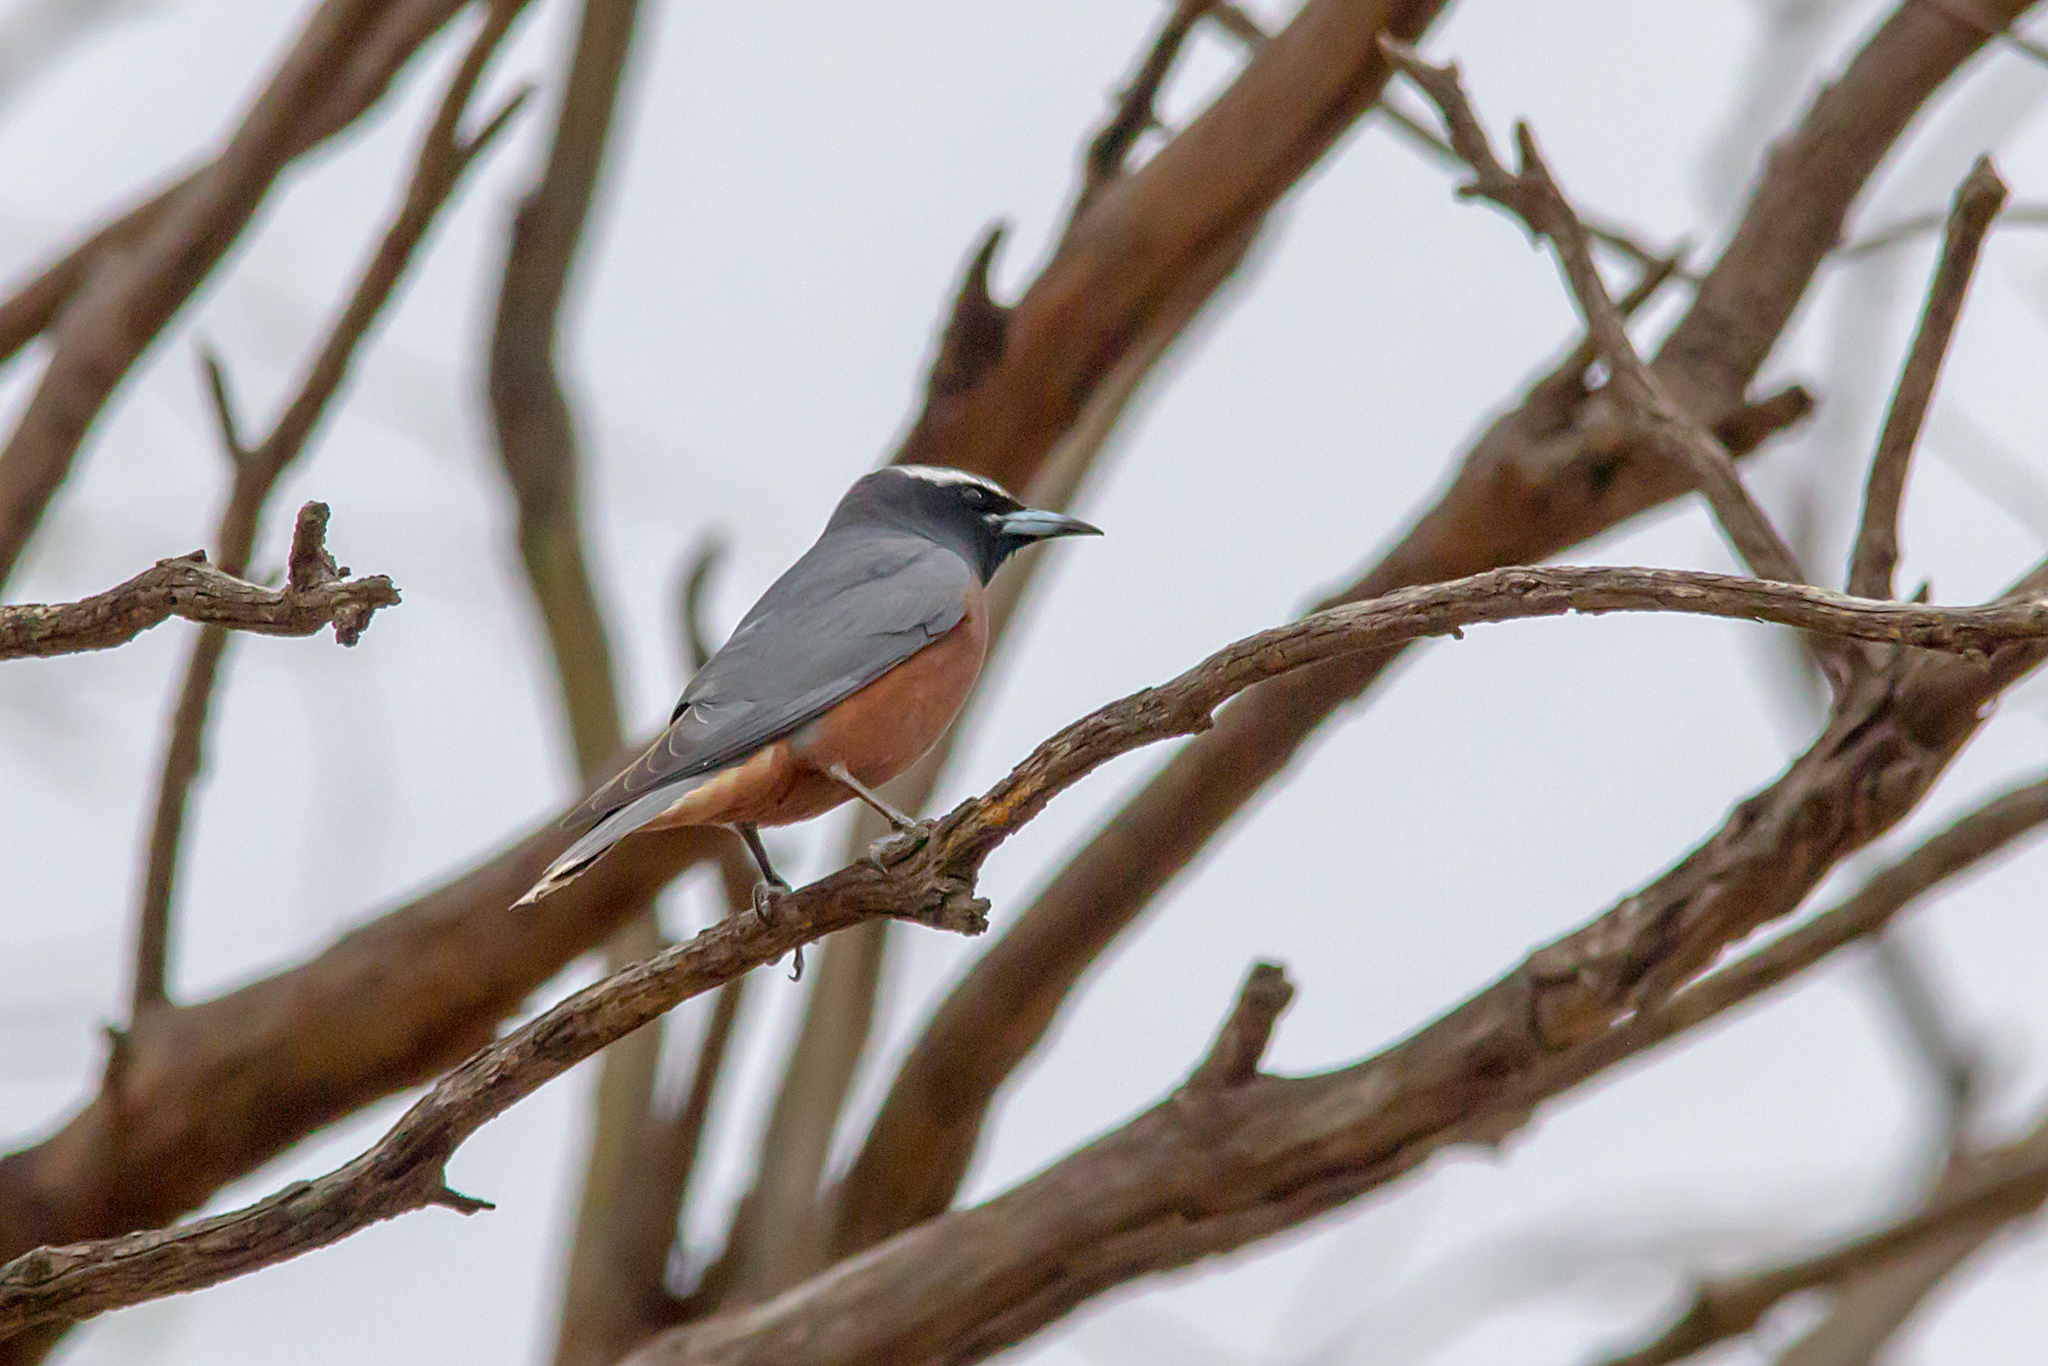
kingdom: Animalia
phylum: Chordata
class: Aves
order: Passeriformes
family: Artamidae
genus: Artamus
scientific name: Artamus superciliosus
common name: White-browed woodswallow
